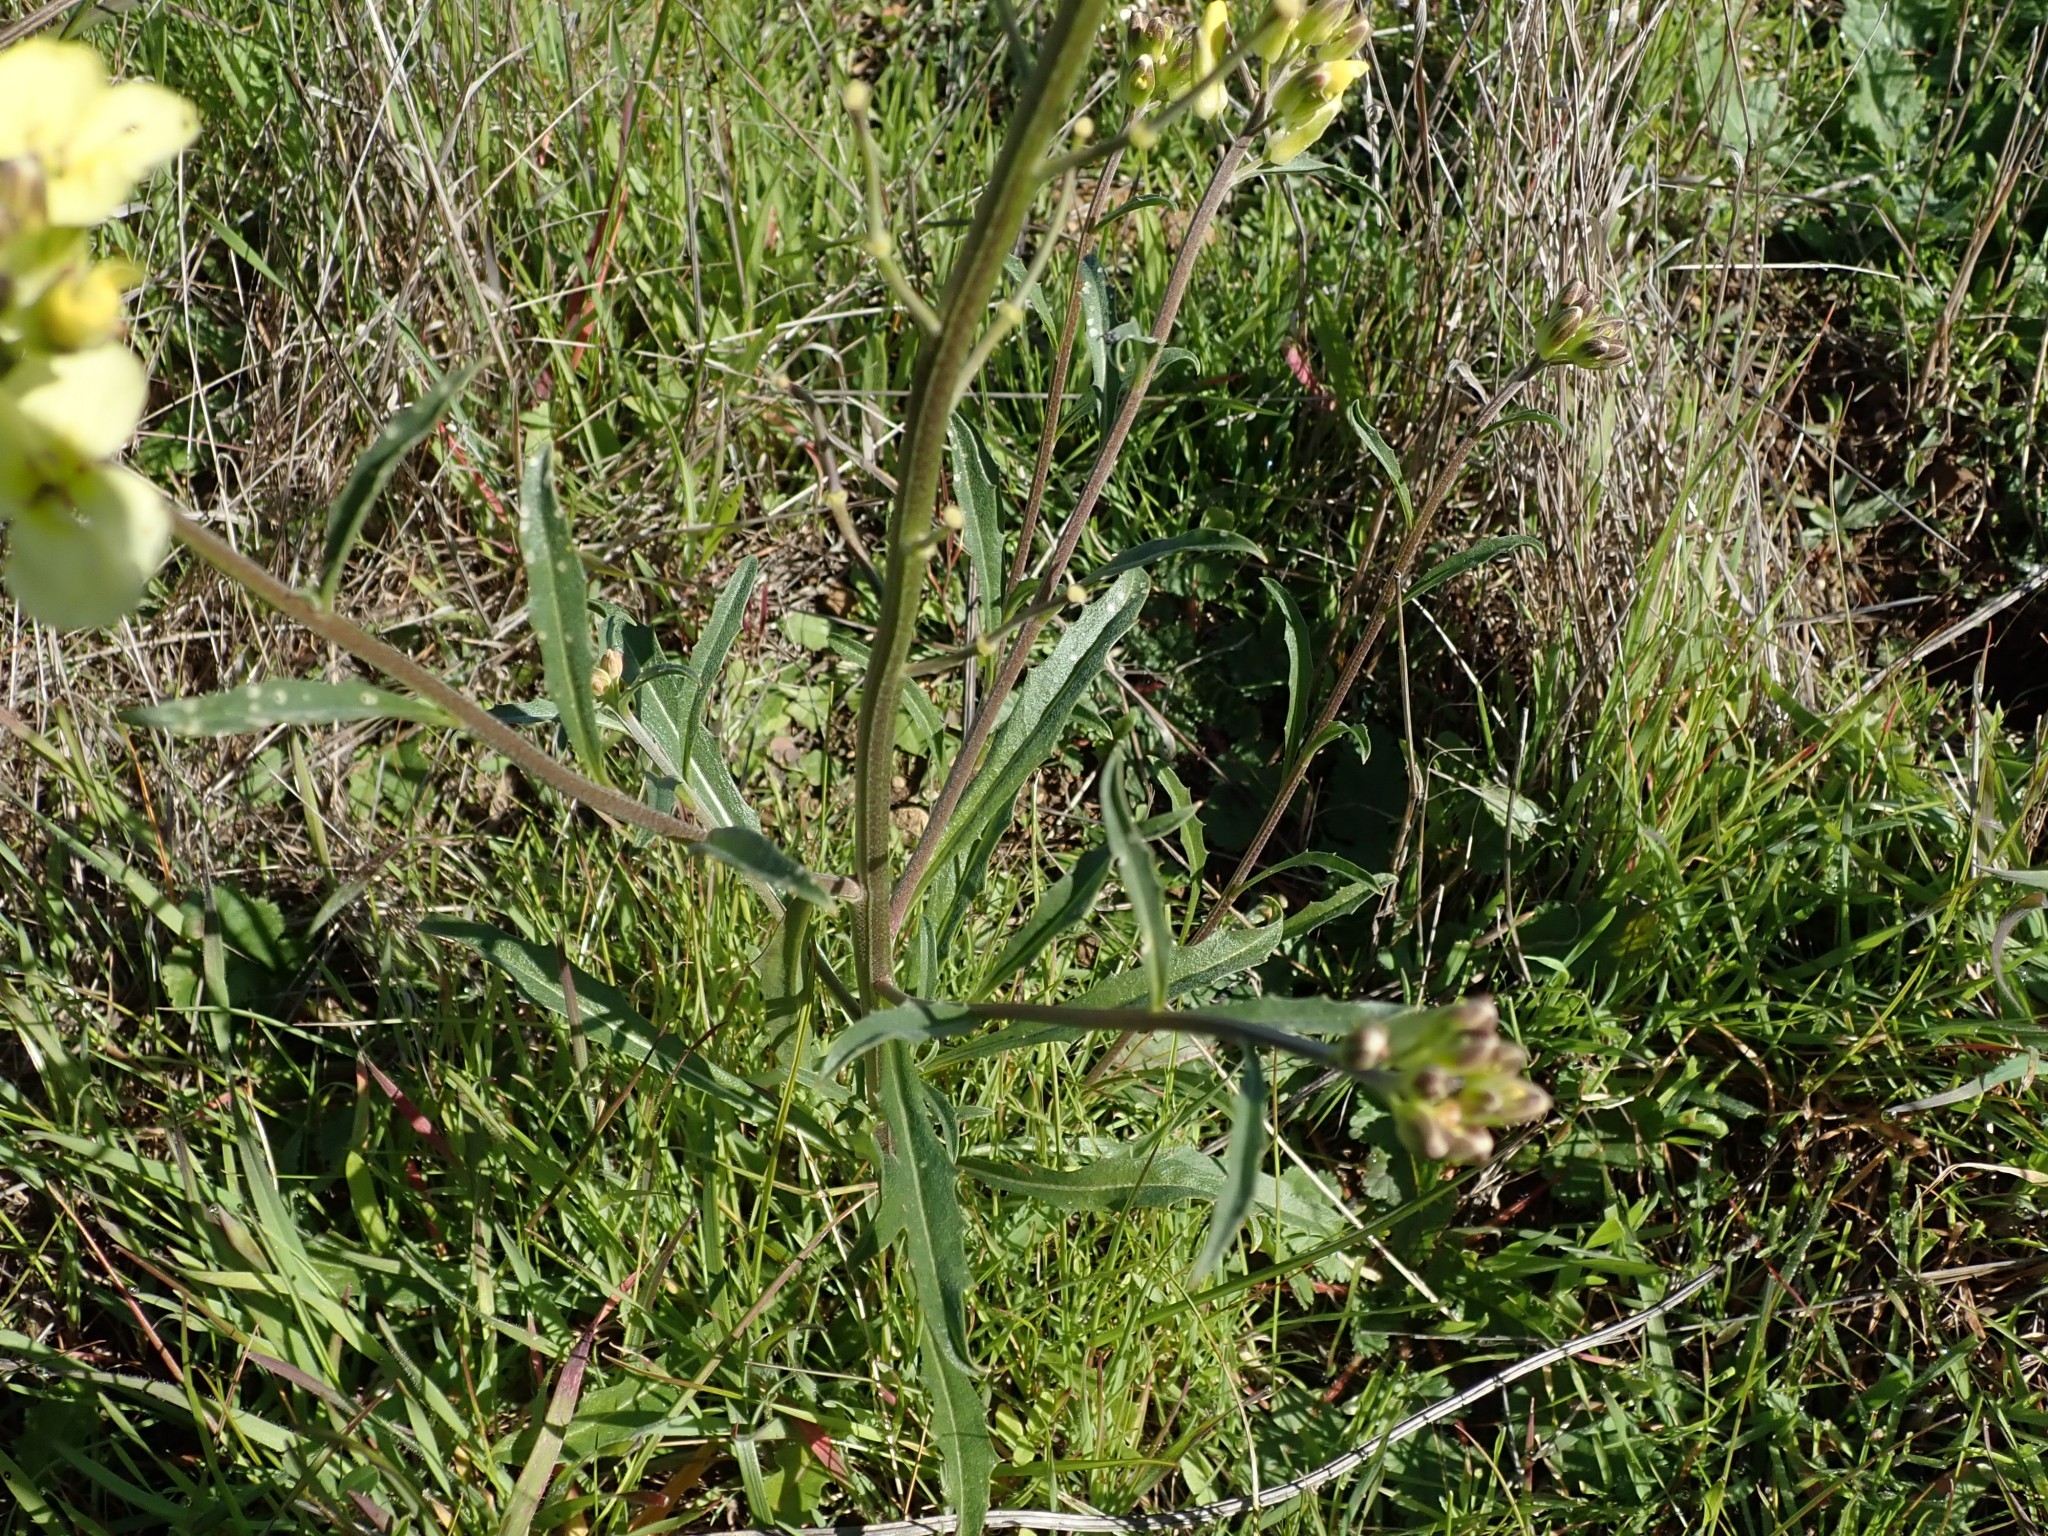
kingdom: Plantae
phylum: Tracheophyta
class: Magnoliopsida
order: Brassicales
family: Brassicaceae
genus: Erysimum
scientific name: Erysimum franciscanum
